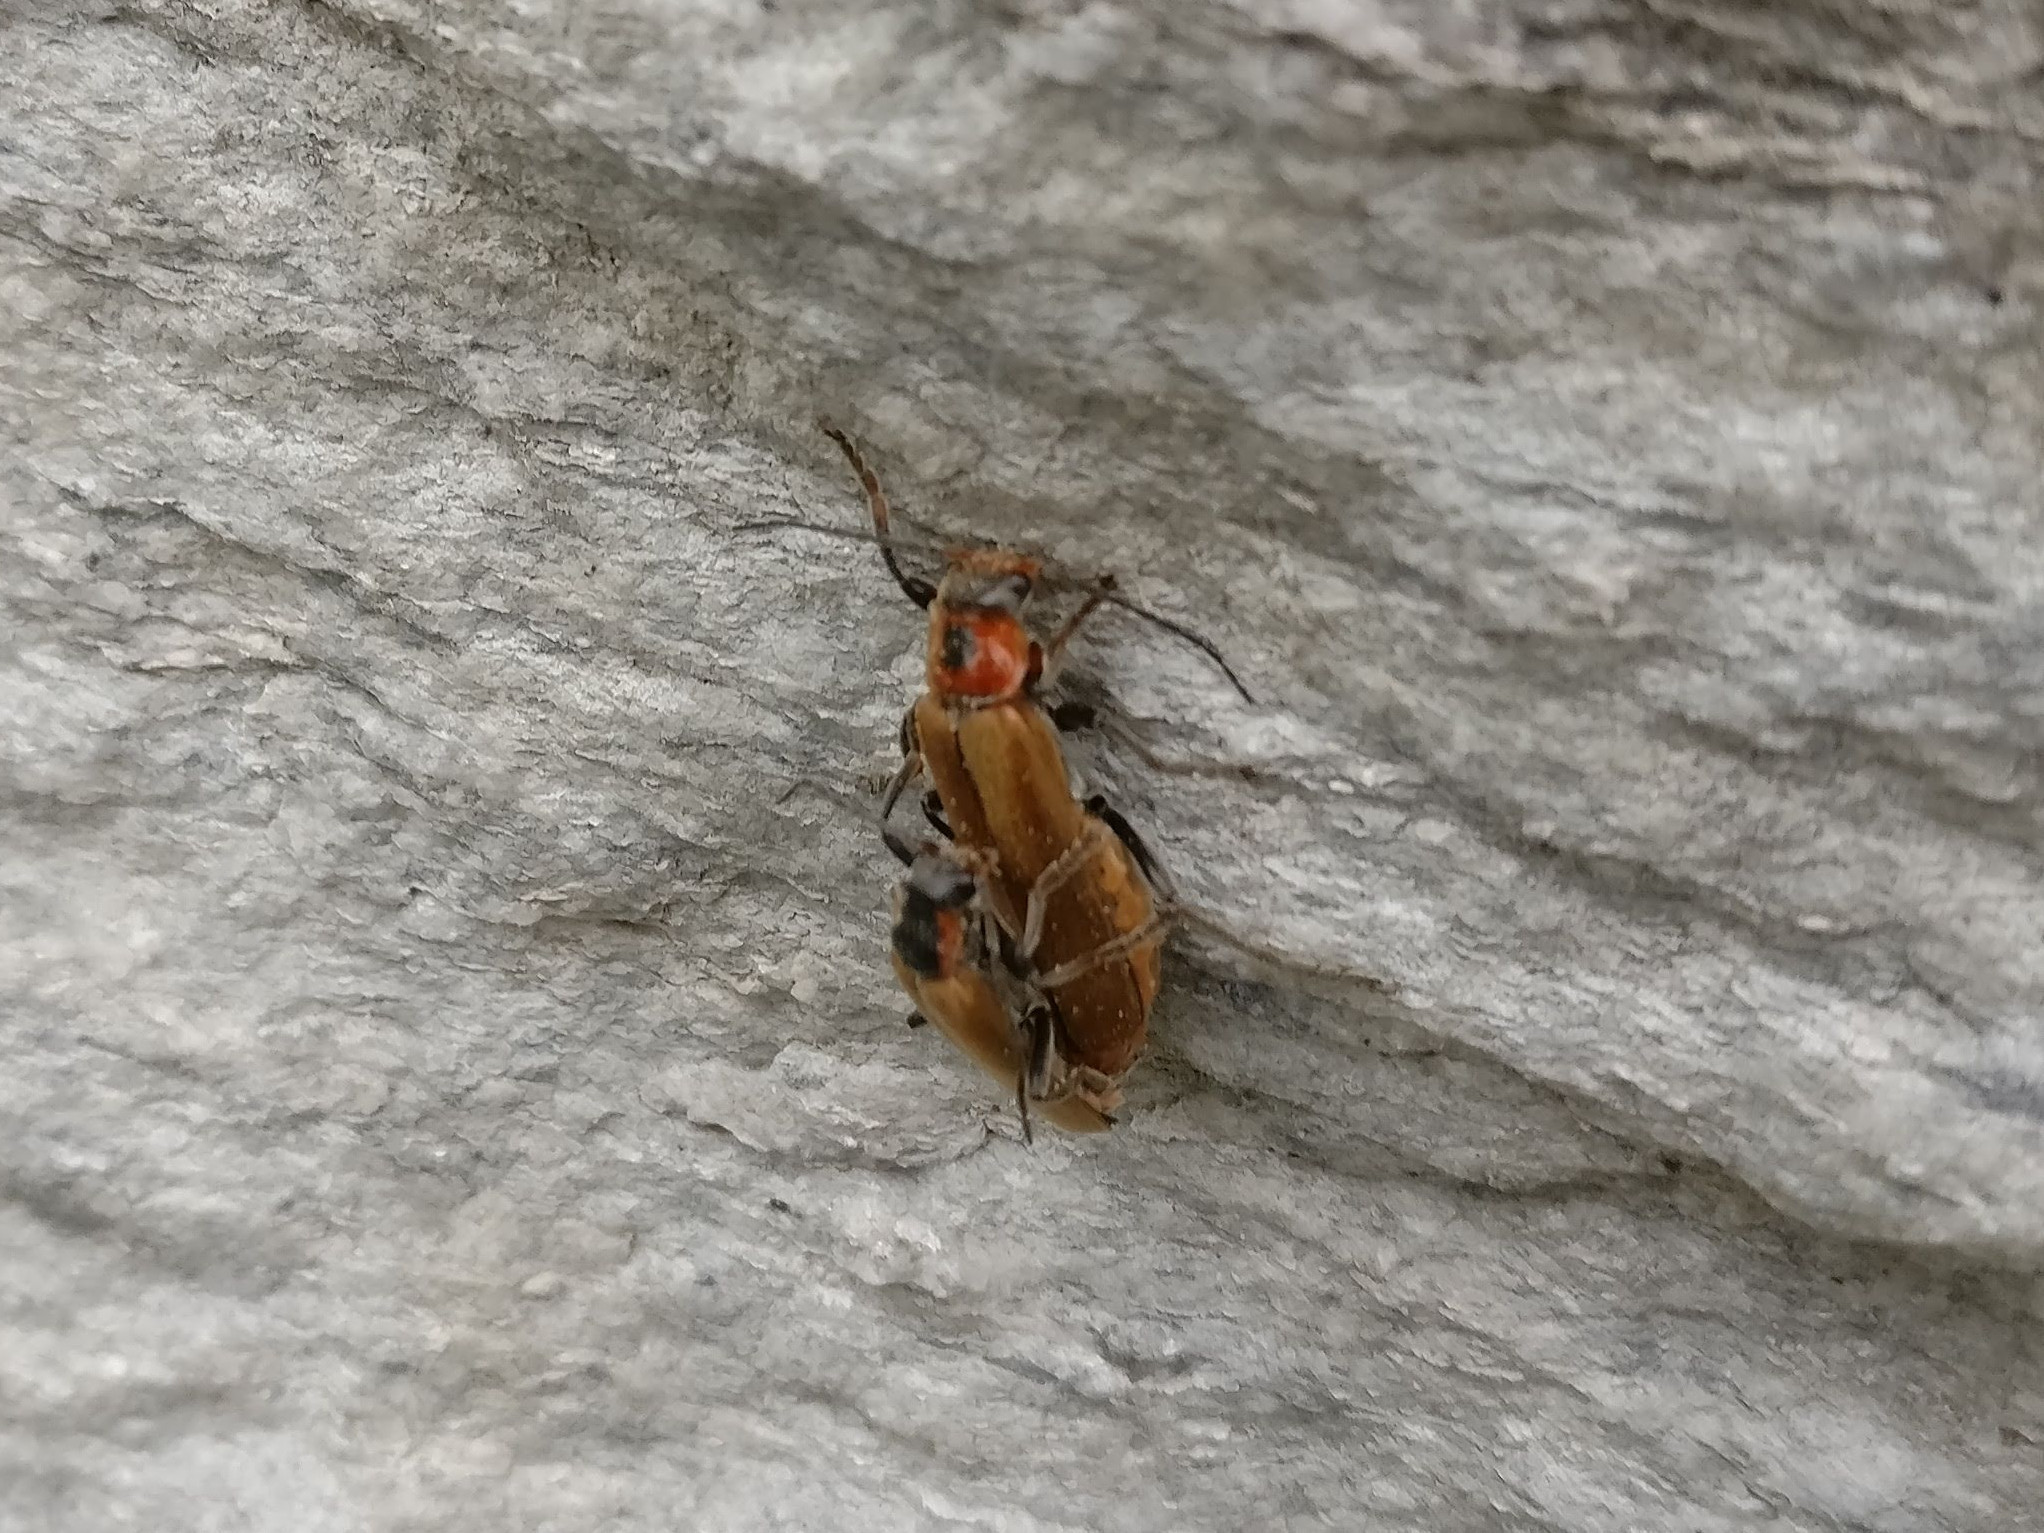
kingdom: Animalia
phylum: Arthropoda
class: Insecta
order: Coleoptera
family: Cantharidae
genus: Cantharis
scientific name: Cantharis quadripunctata
